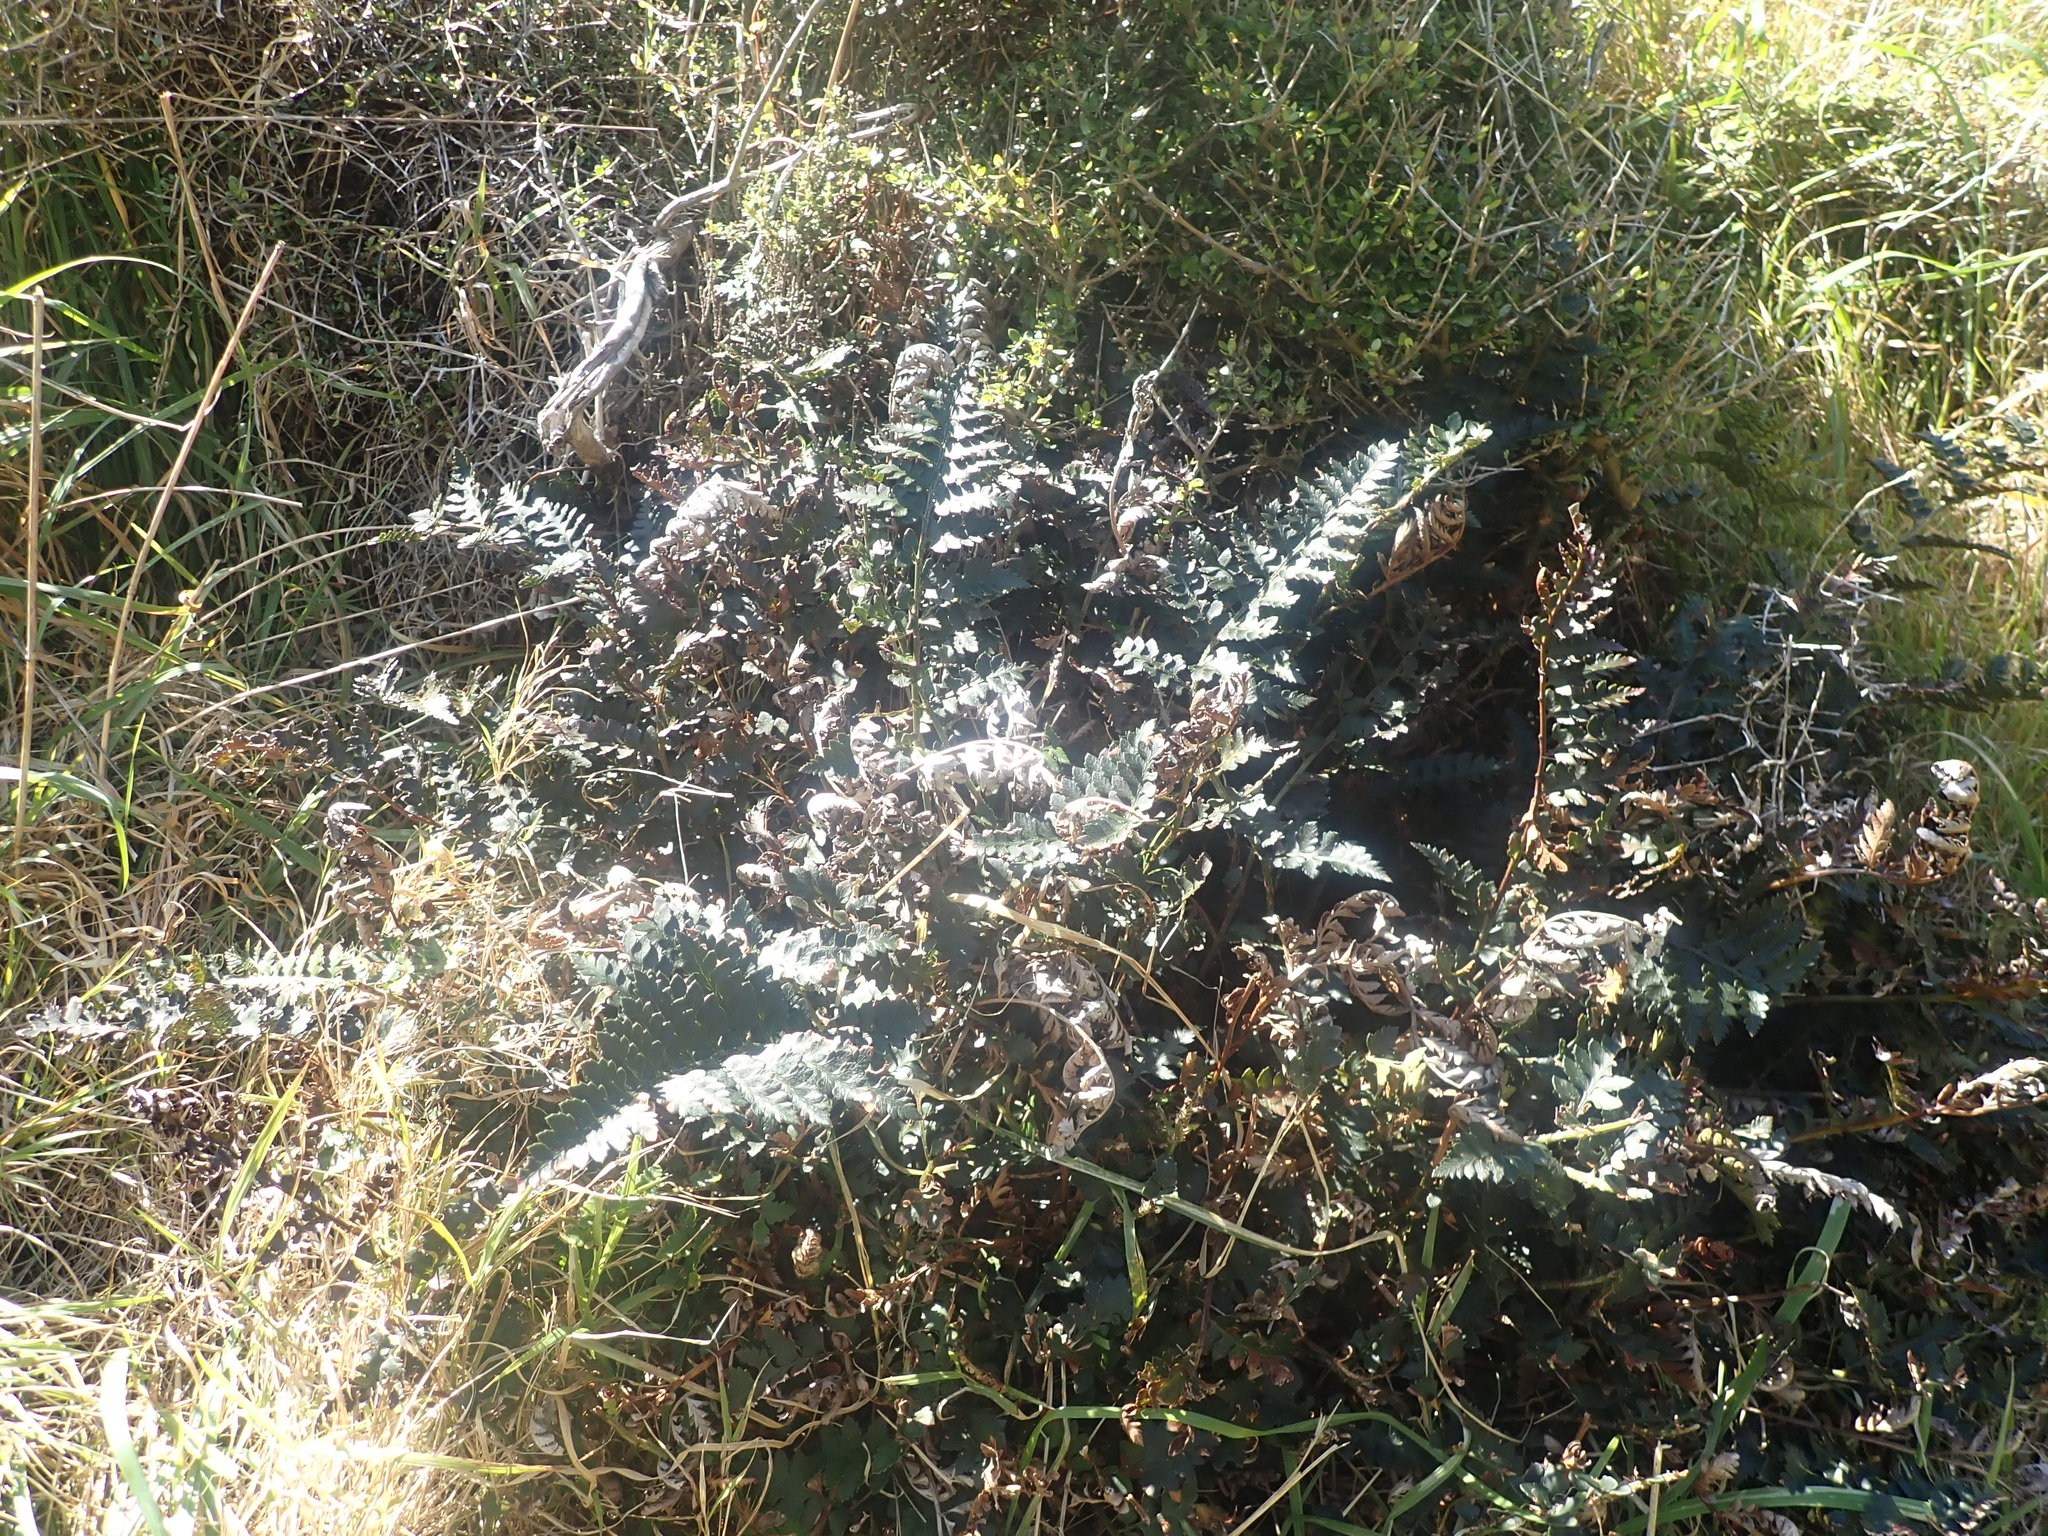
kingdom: Plantae
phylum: Tracheophyta
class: Polypodiopsida
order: Polypodiales
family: Dryopteridaceae
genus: Polystichum
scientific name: Polystichum oculatum
